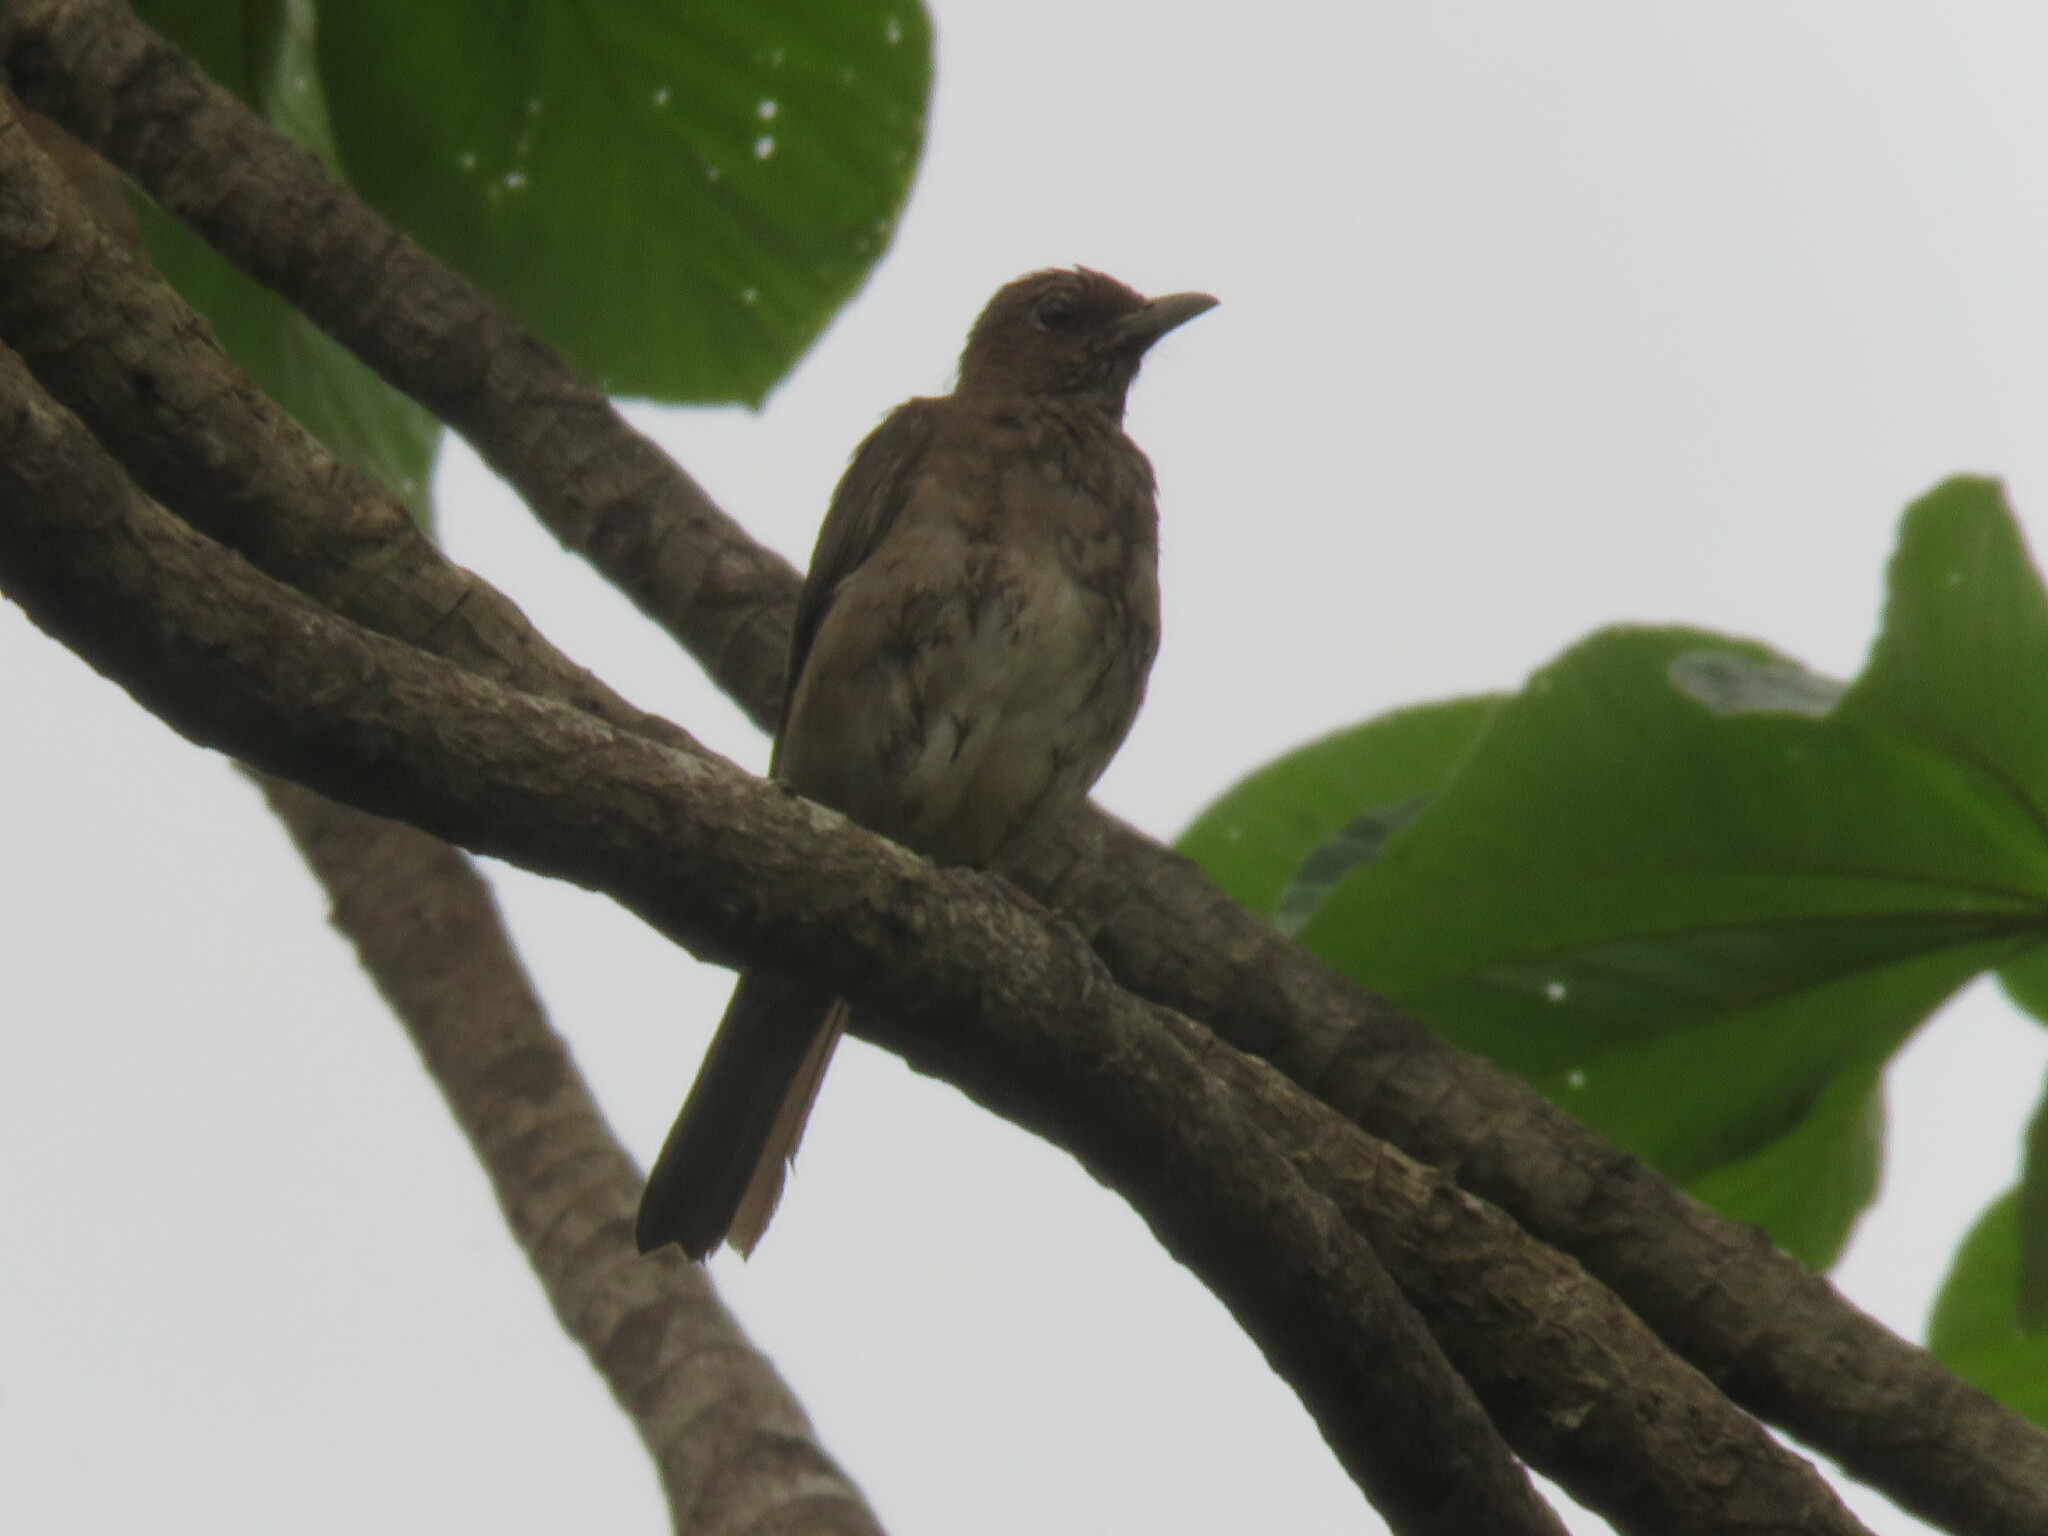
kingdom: Animalia
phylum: Chordata
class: Aves
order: Passeriformes
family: Turdidae
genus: Turdus
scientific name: Turdus hauxwelli
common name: Hauxwell's thrush
